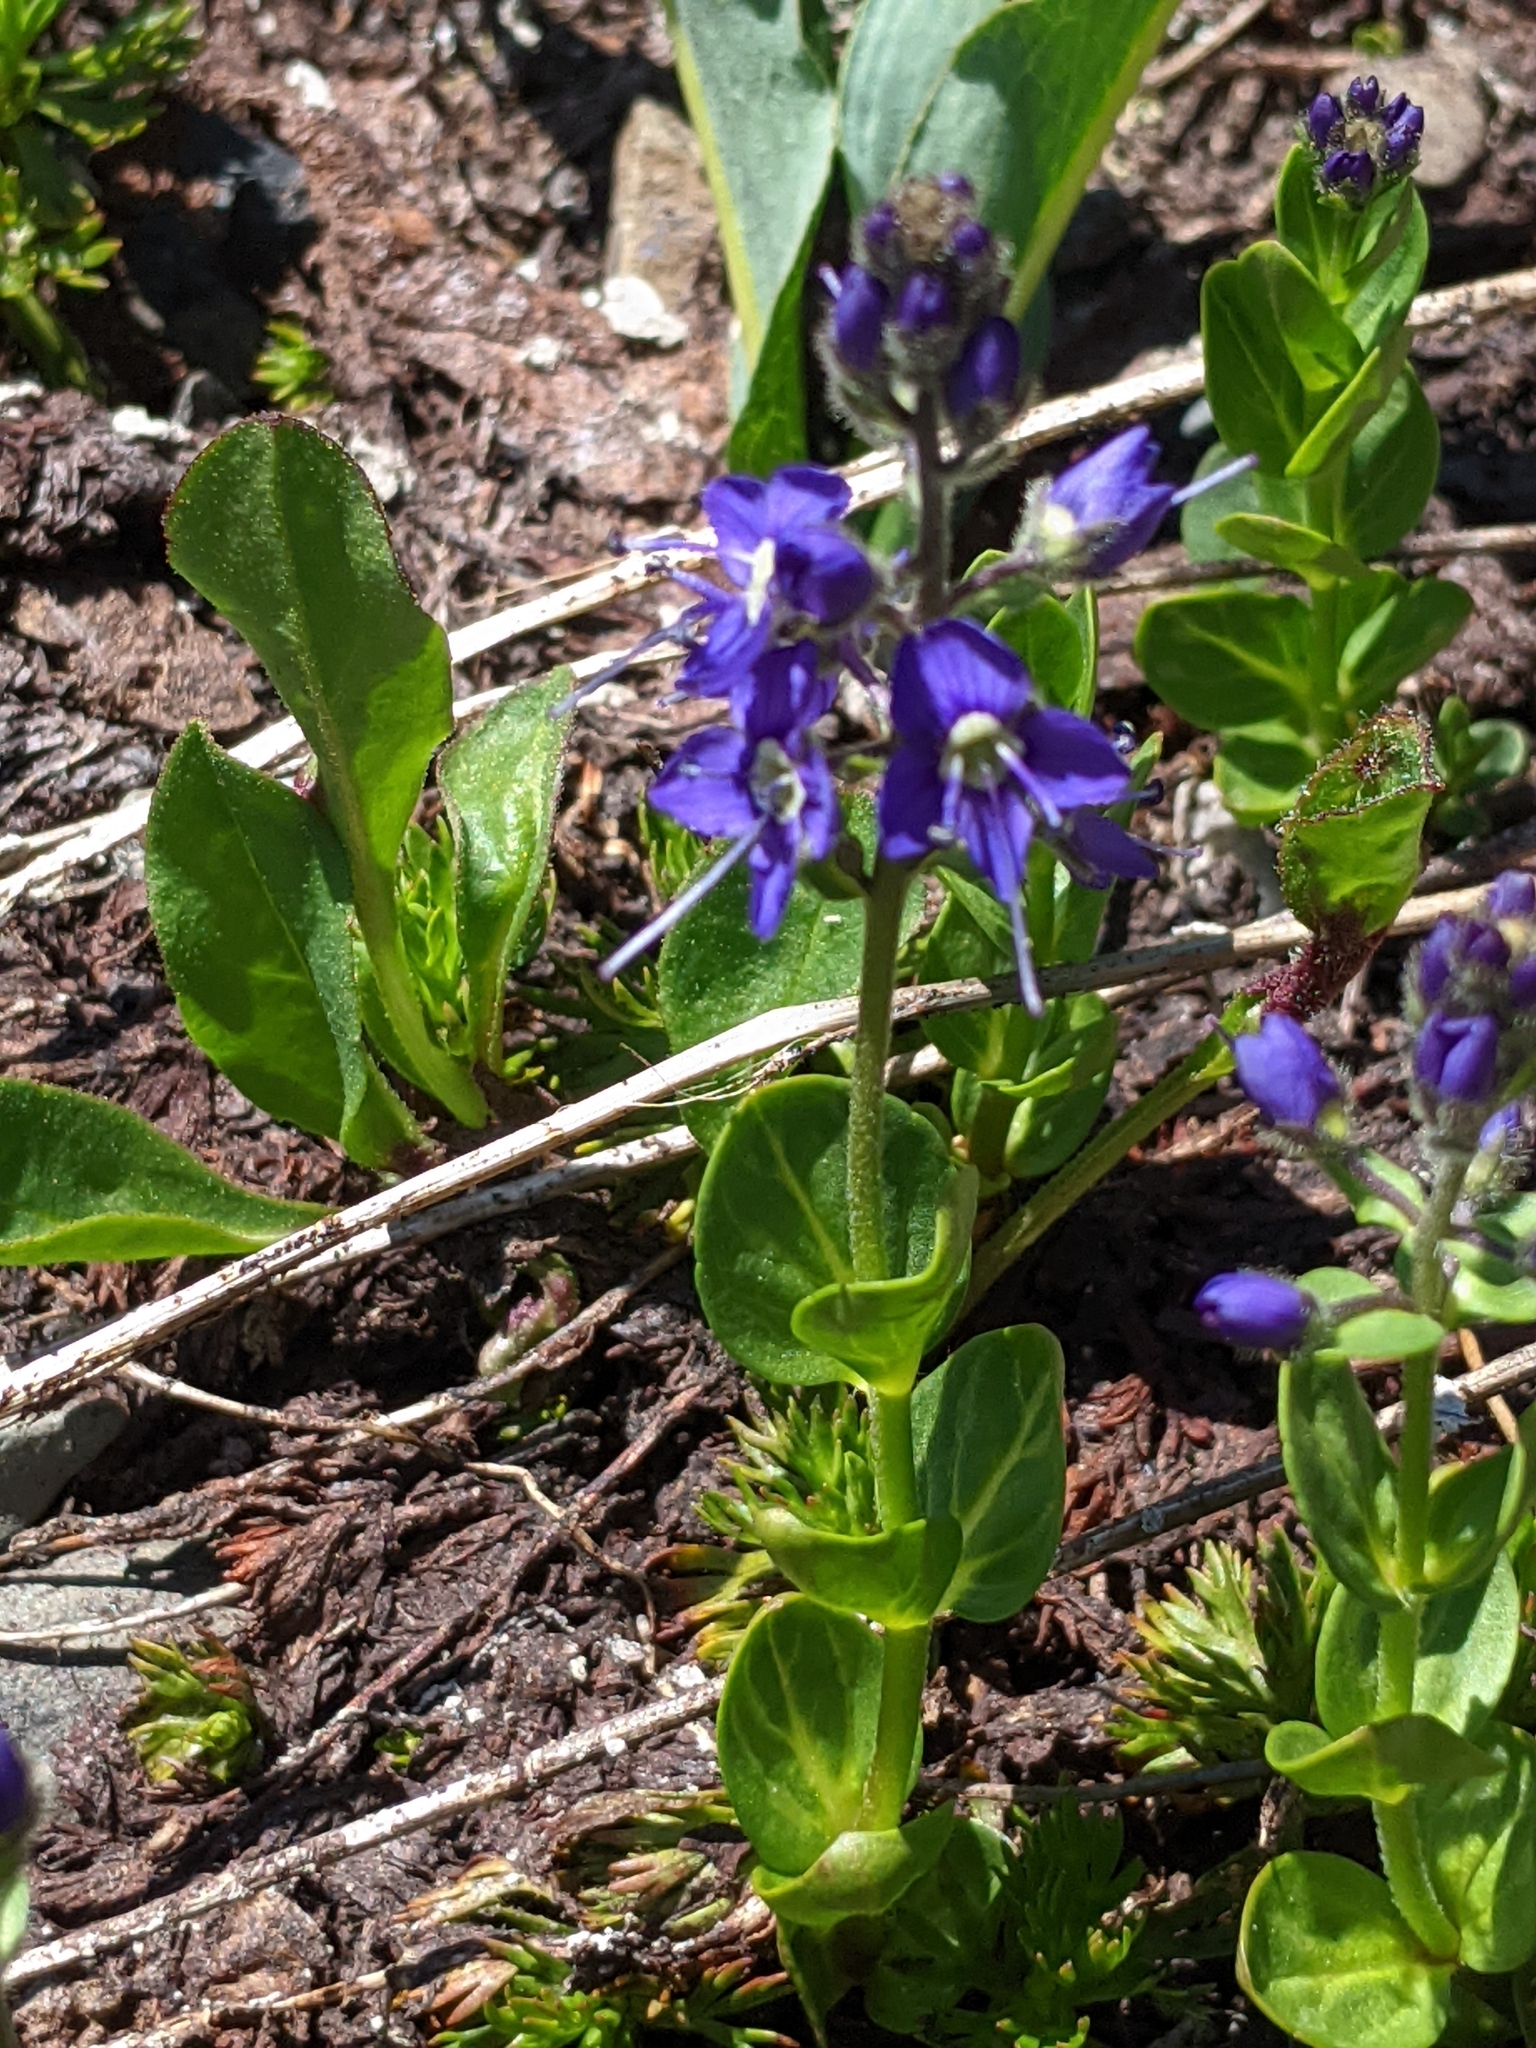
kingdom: Plantae
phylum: Tracheophyta
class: Magnoliopsida
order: Lamiales
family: Plantaginaceae
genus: Veronica
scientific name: Veronica cusickii
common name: Cusick's speedwell
